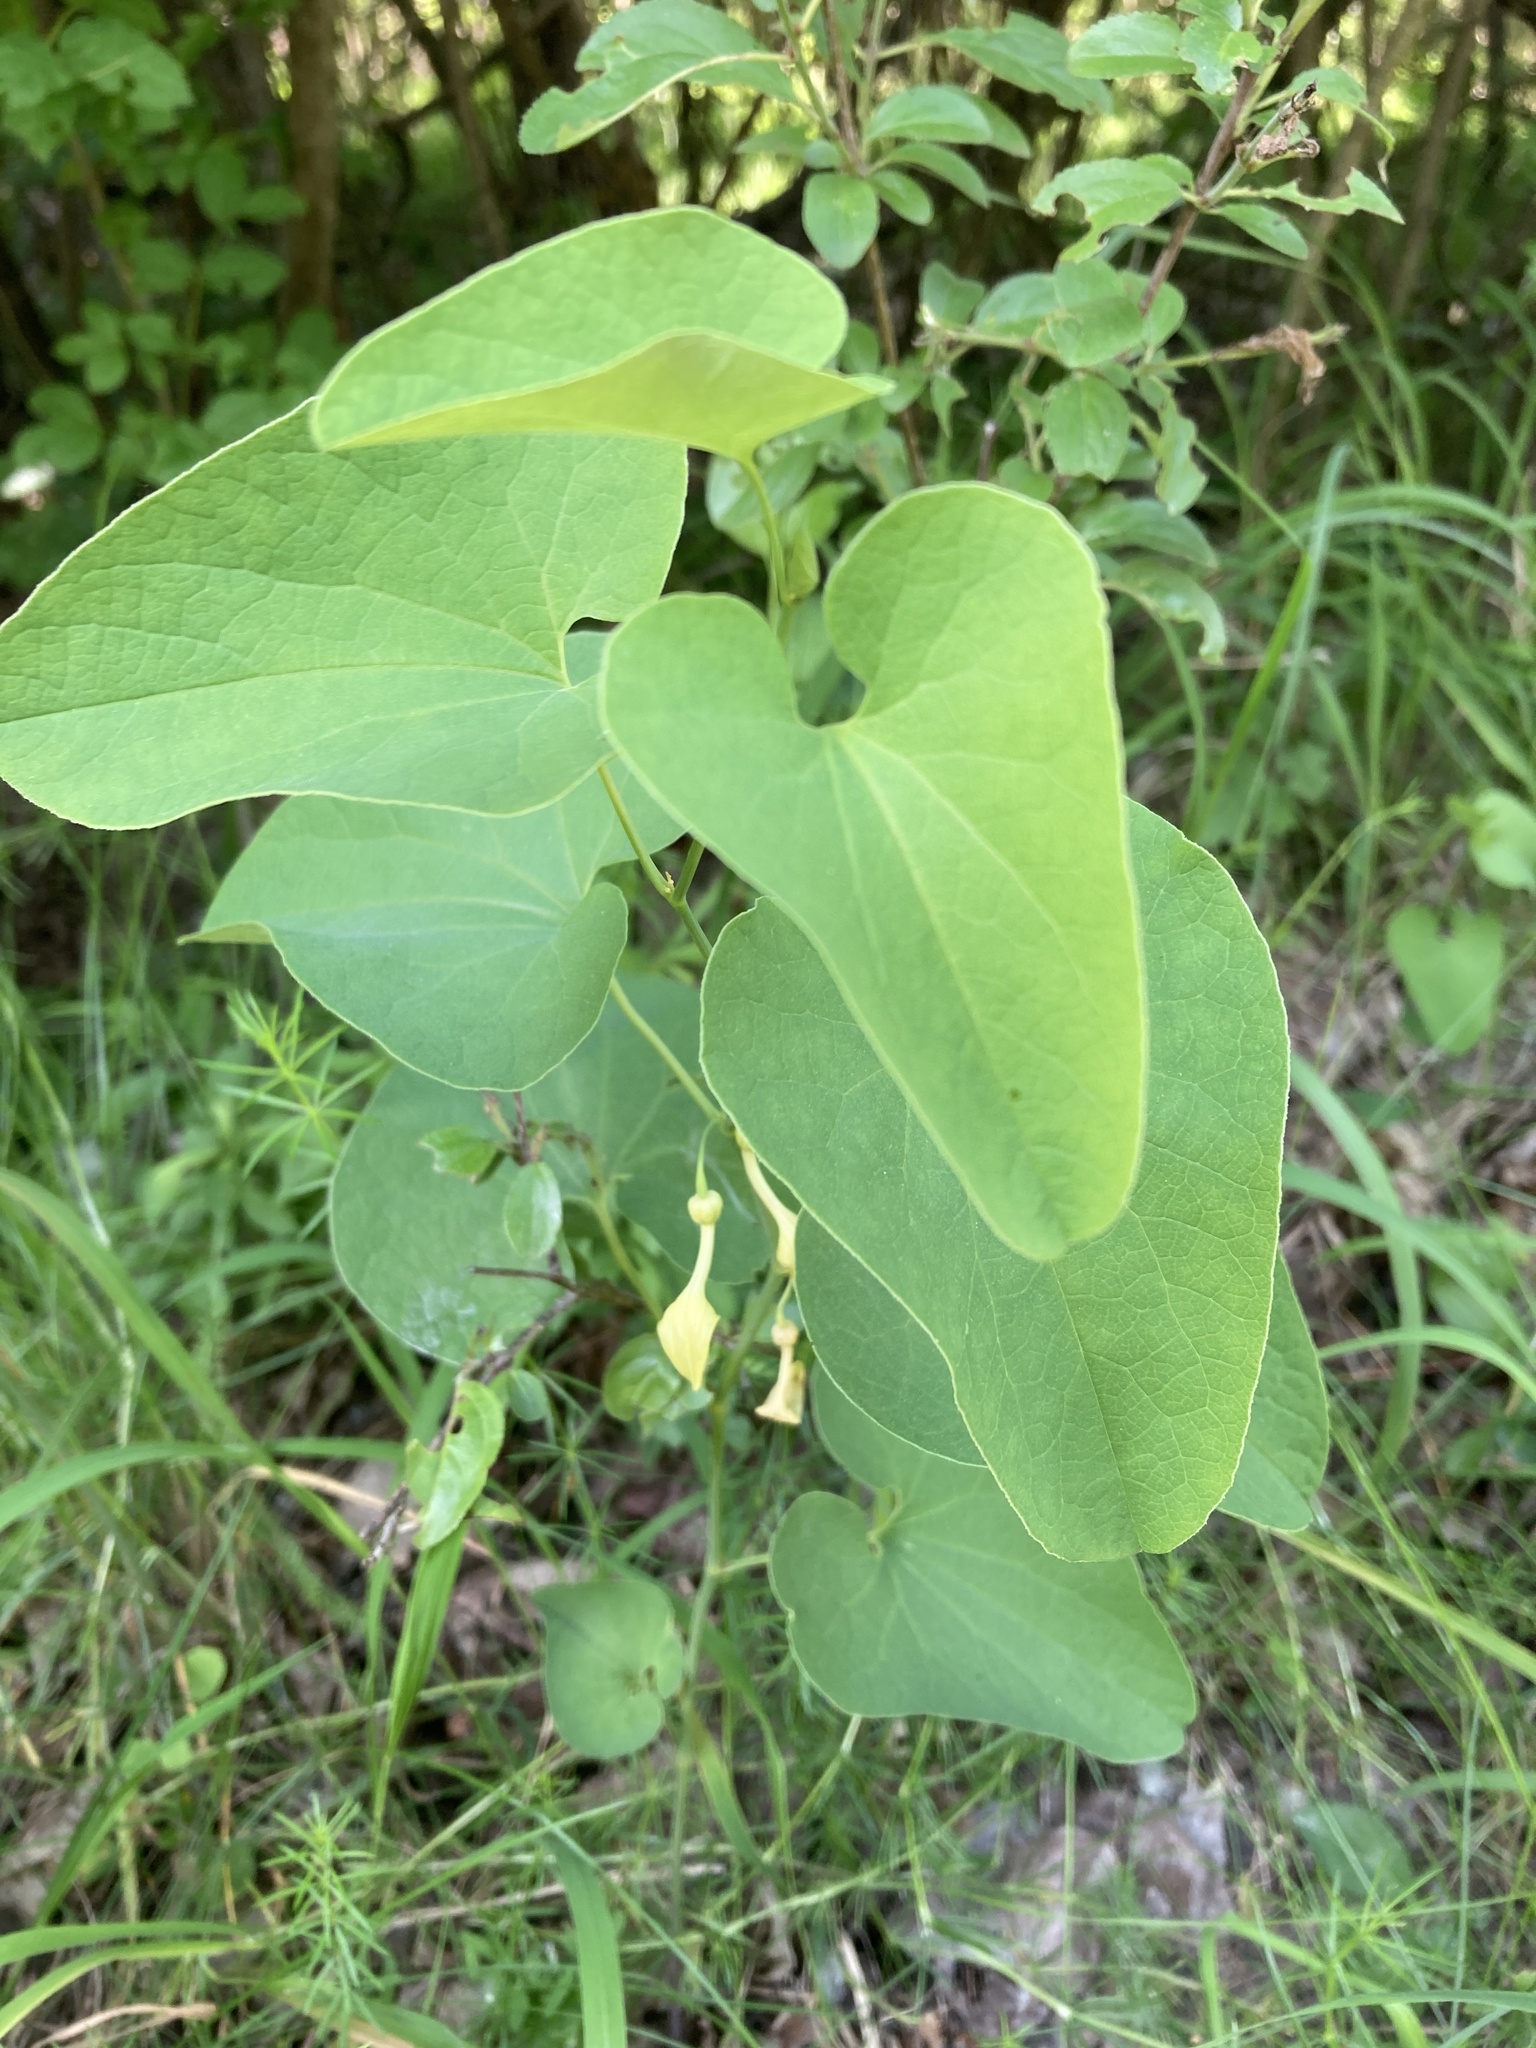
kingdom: Plantae
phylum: Tracheophyta
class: Magnoliopsida
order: Piperales
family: Aristolochiaceae
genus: Aristolochia
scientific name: Aristolochia clematitis
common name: Birthwort
